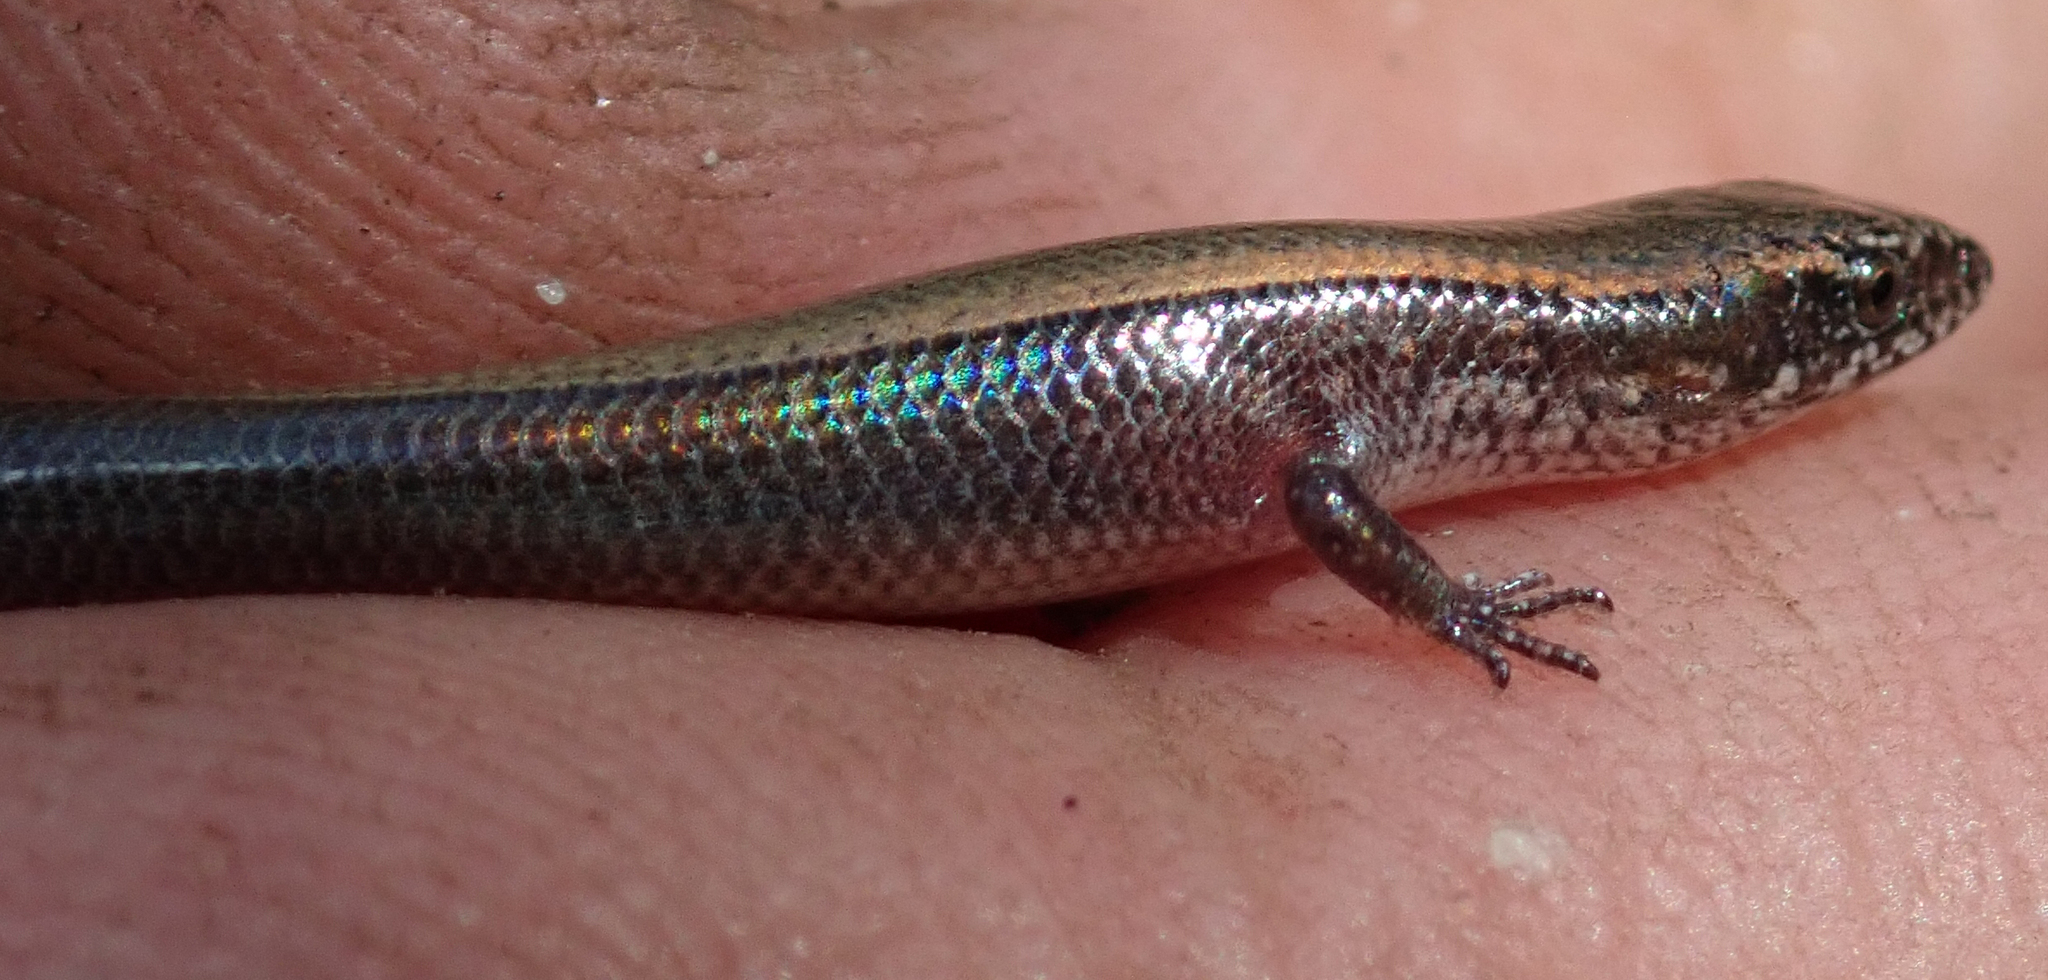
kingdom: Animalia
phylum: Chordata
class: Squamata
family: Scincidae
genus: Panaspis
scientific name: Panaspis maculicollis
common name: Spotted-neck snake-eyed skink
